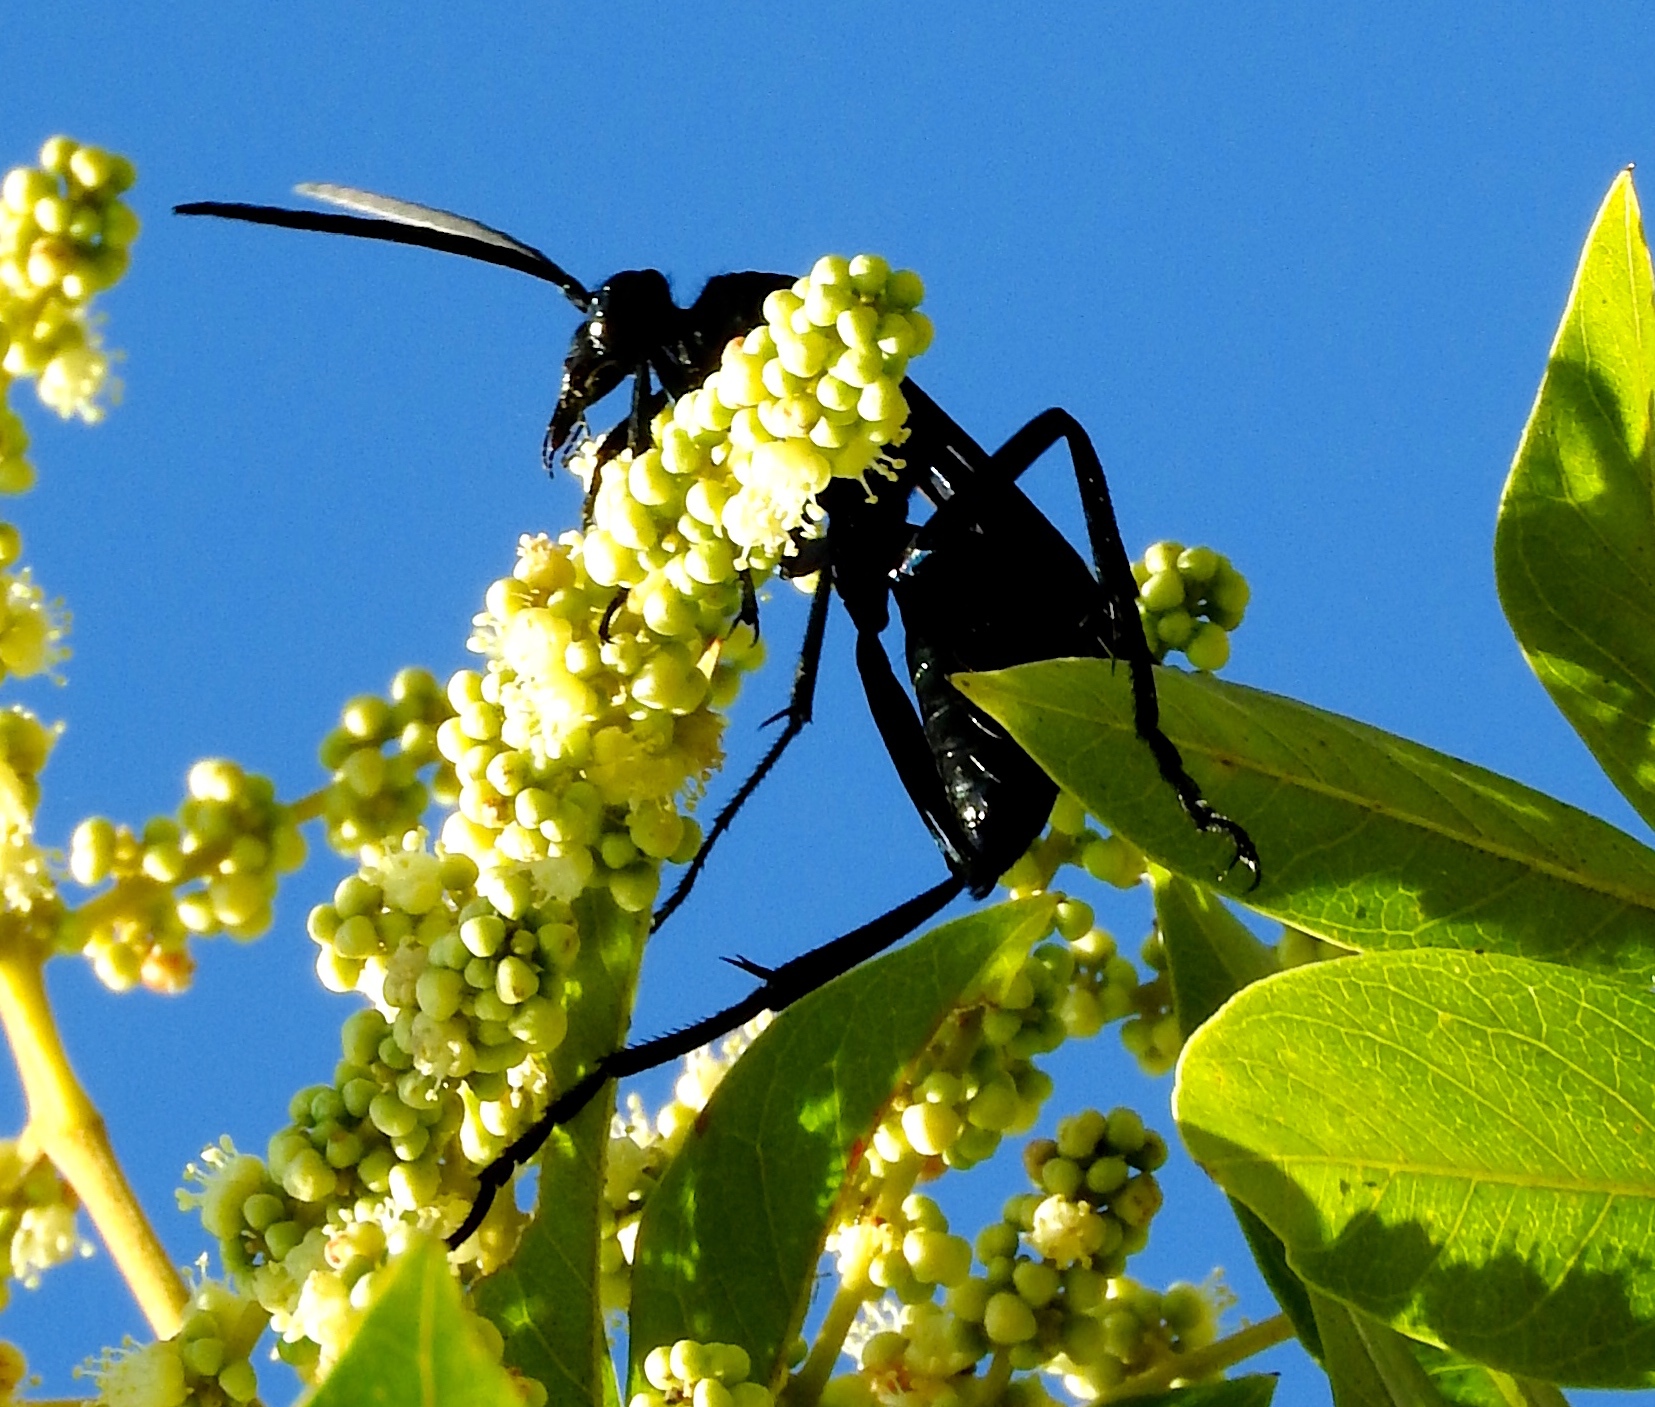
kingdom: Animalia
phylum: Arthropoda
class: Insecta
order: Hymenoptera
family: Pompilidae
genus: Pepsis
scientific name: Pepsis mexicana
